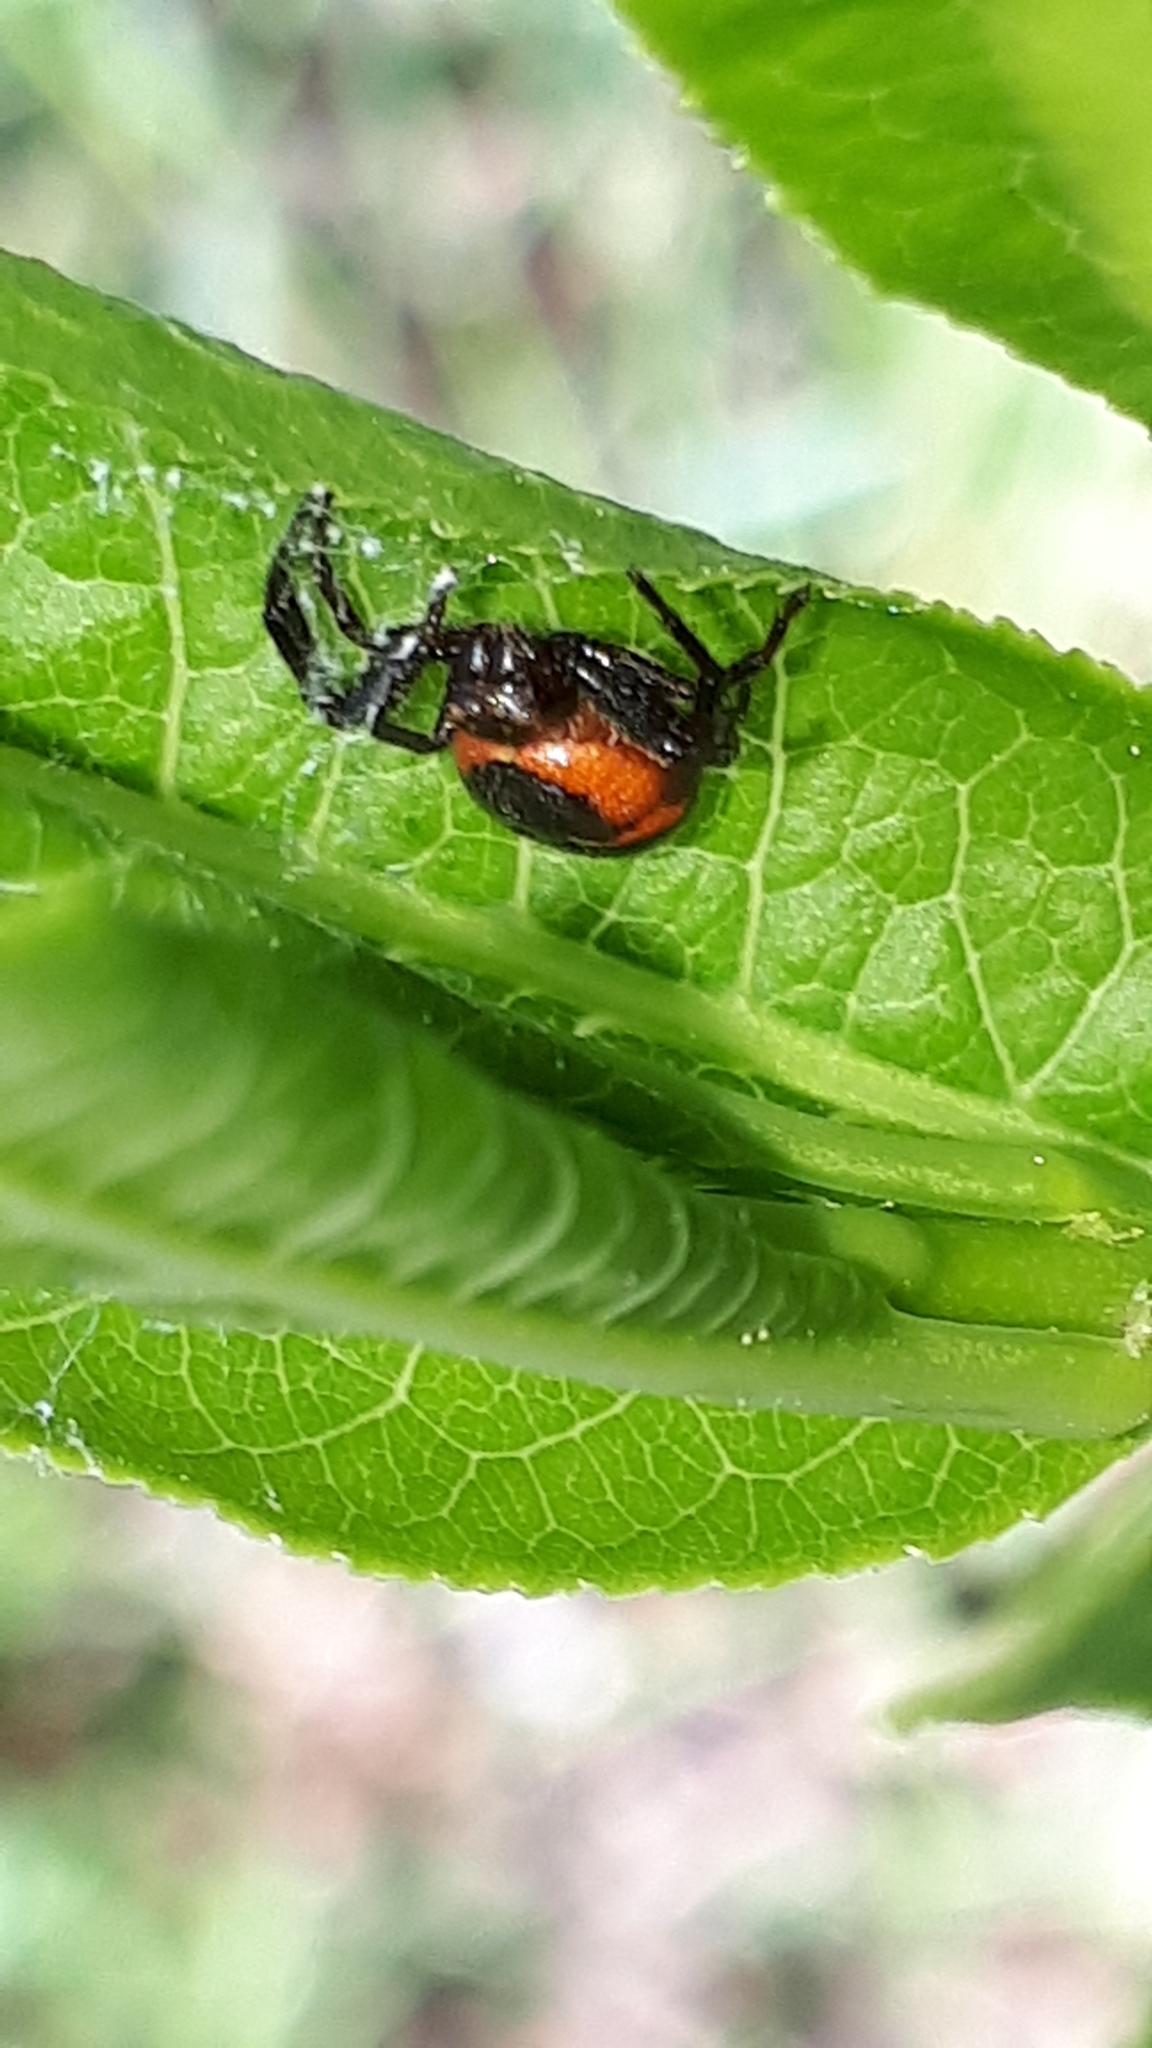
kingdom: Animalia
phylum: Arthropoda
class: Arachnida
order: Araneae
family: Thomisidae
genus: Synema
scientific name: Synema globosum
